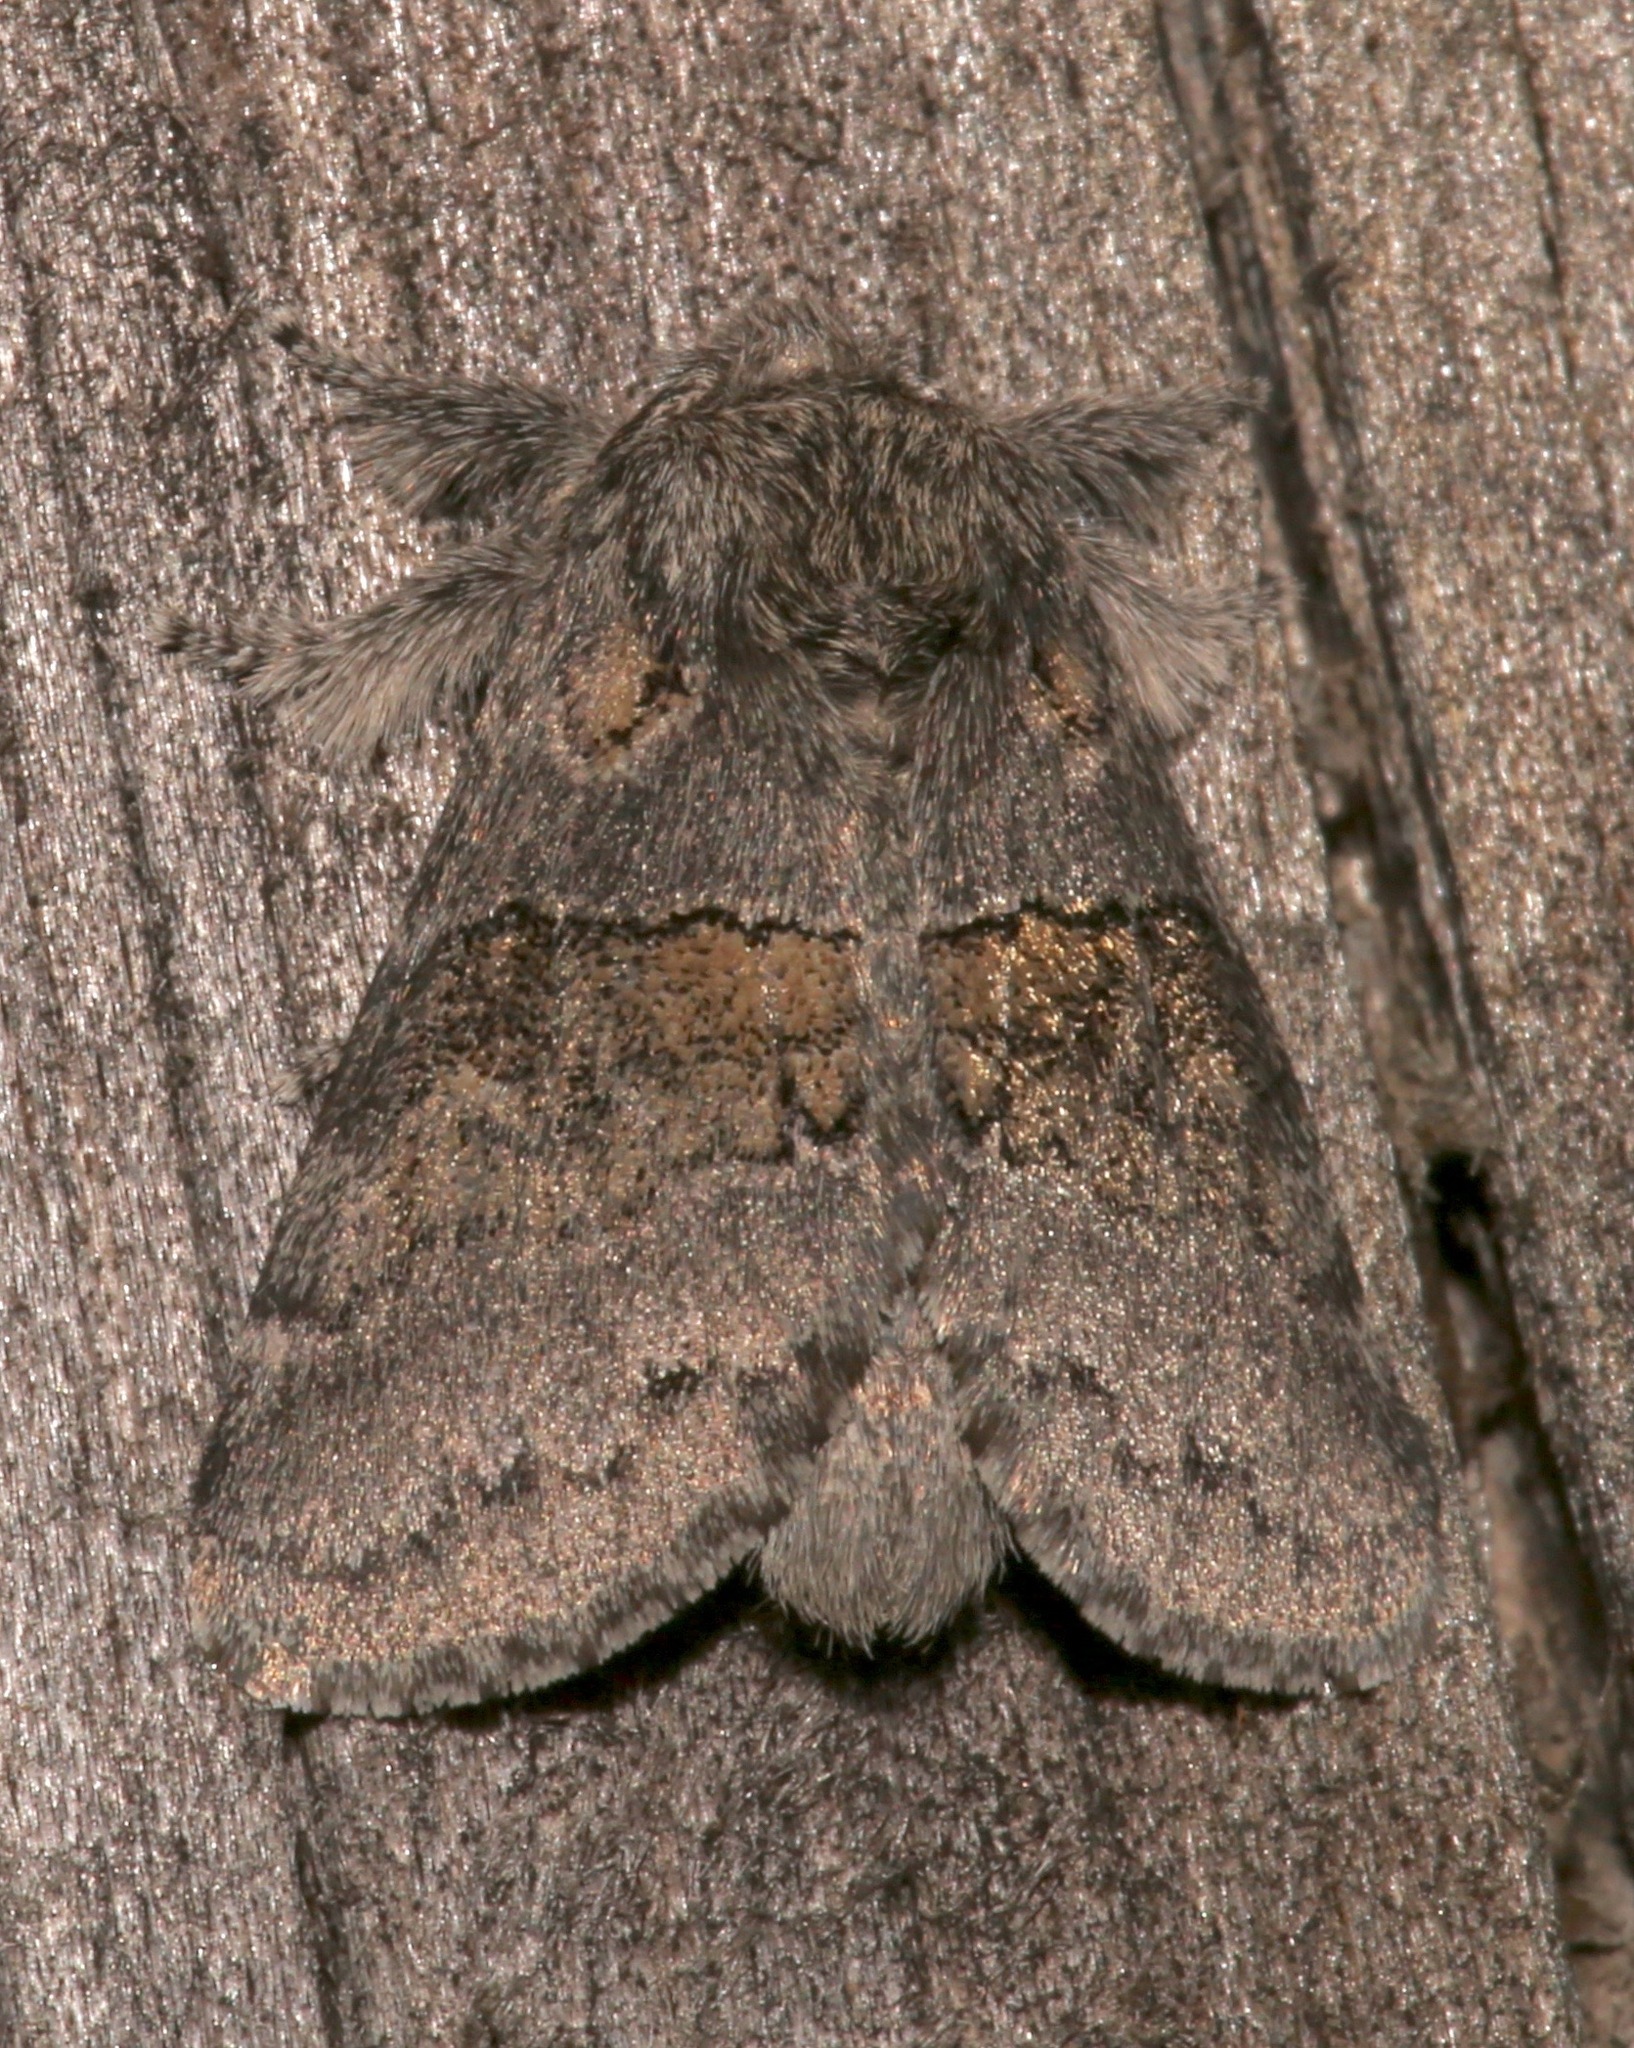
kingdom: Animalia
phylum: Arthropoda
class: Insecta
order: Lepidoptera
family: Notodontidae
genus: Gluphisia
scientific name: Gluphisia septentrionis
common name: Common gluphisia
